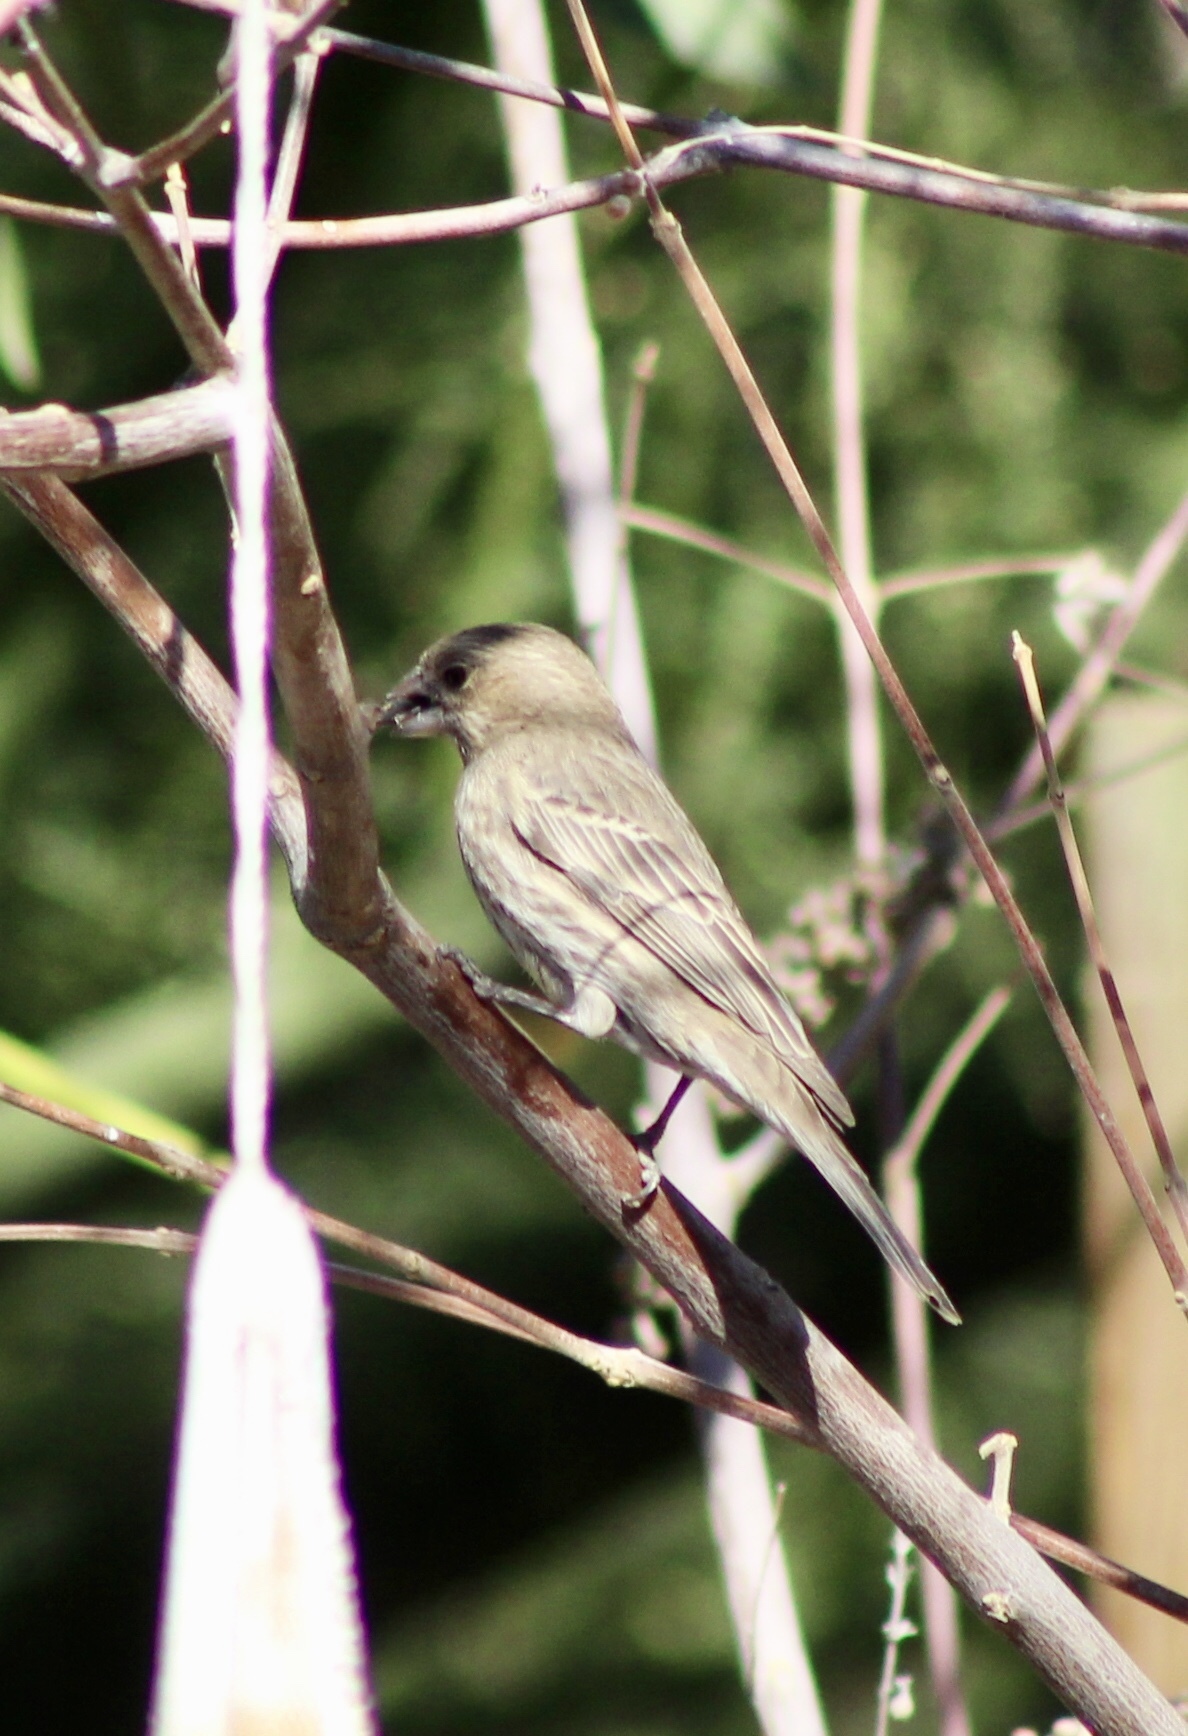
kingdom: Animalia
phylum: Chordata
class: Aves
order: Passeriformes
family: Fringillidae
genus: Haemorhous
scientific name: Haemorhous mexicanus
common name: House finch
